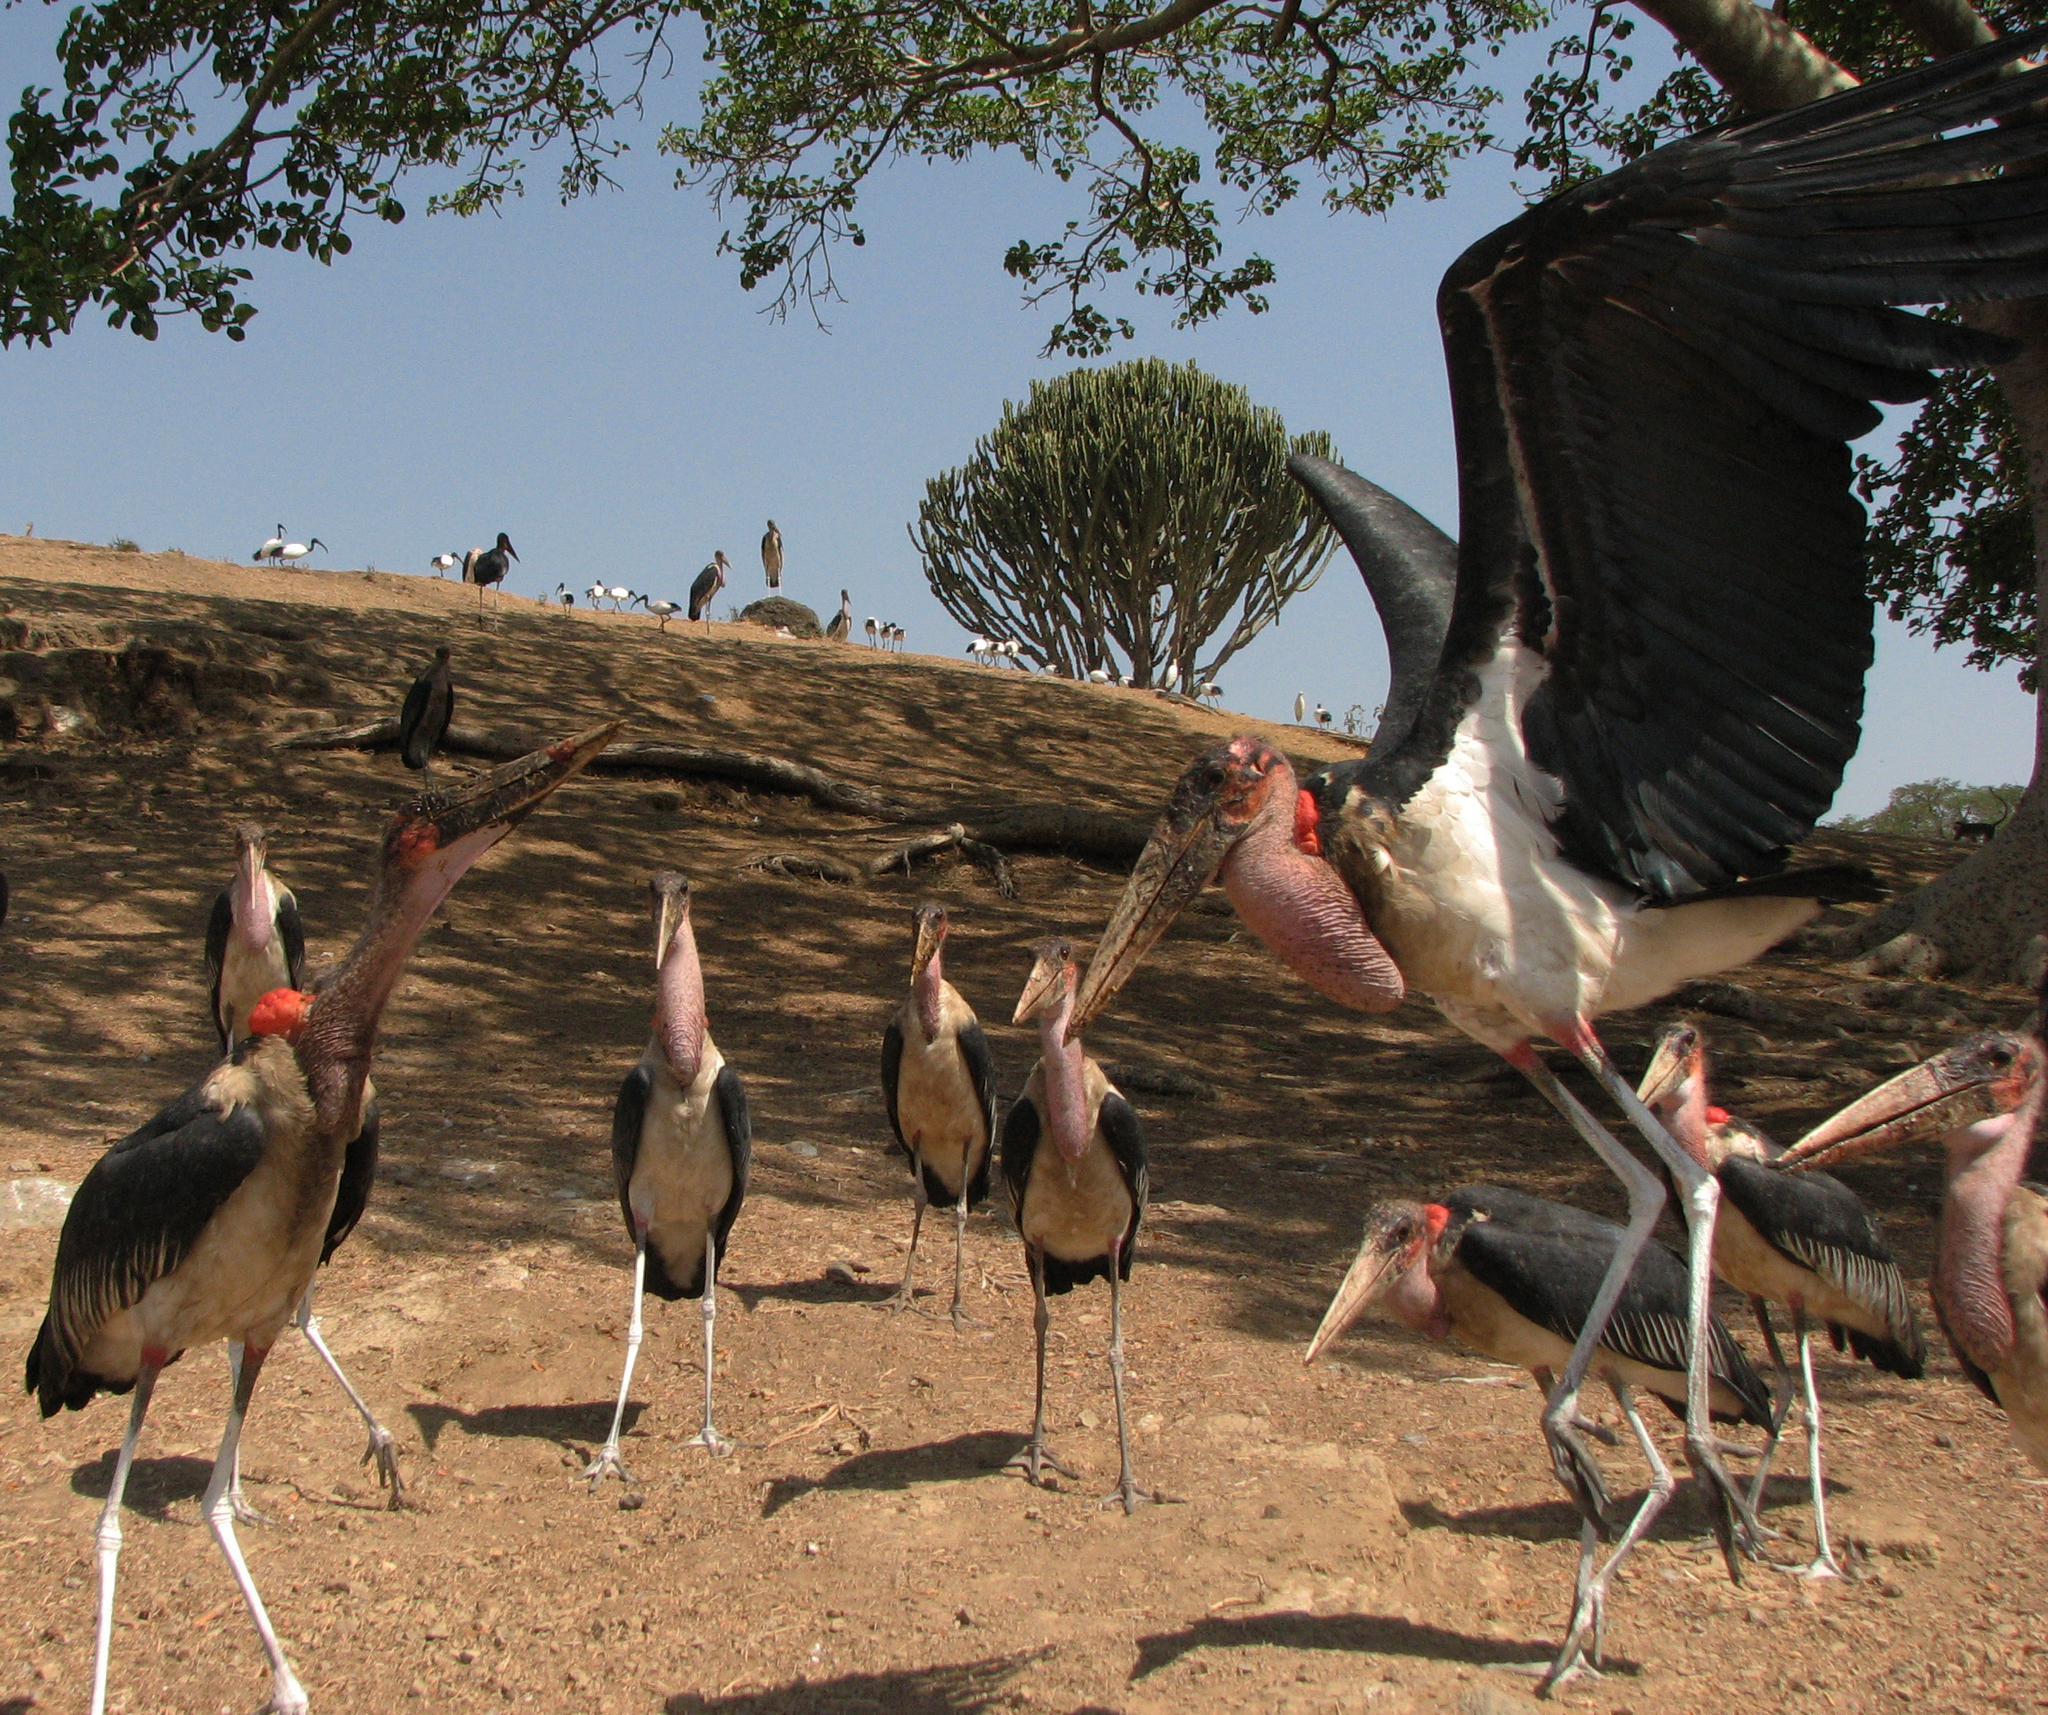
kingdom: Animalia
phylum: Chordata
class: Aves
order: Ciconiiformes
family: Ciconiidae
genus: Leptoptilos
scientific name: Leptoptilos crumenifer
